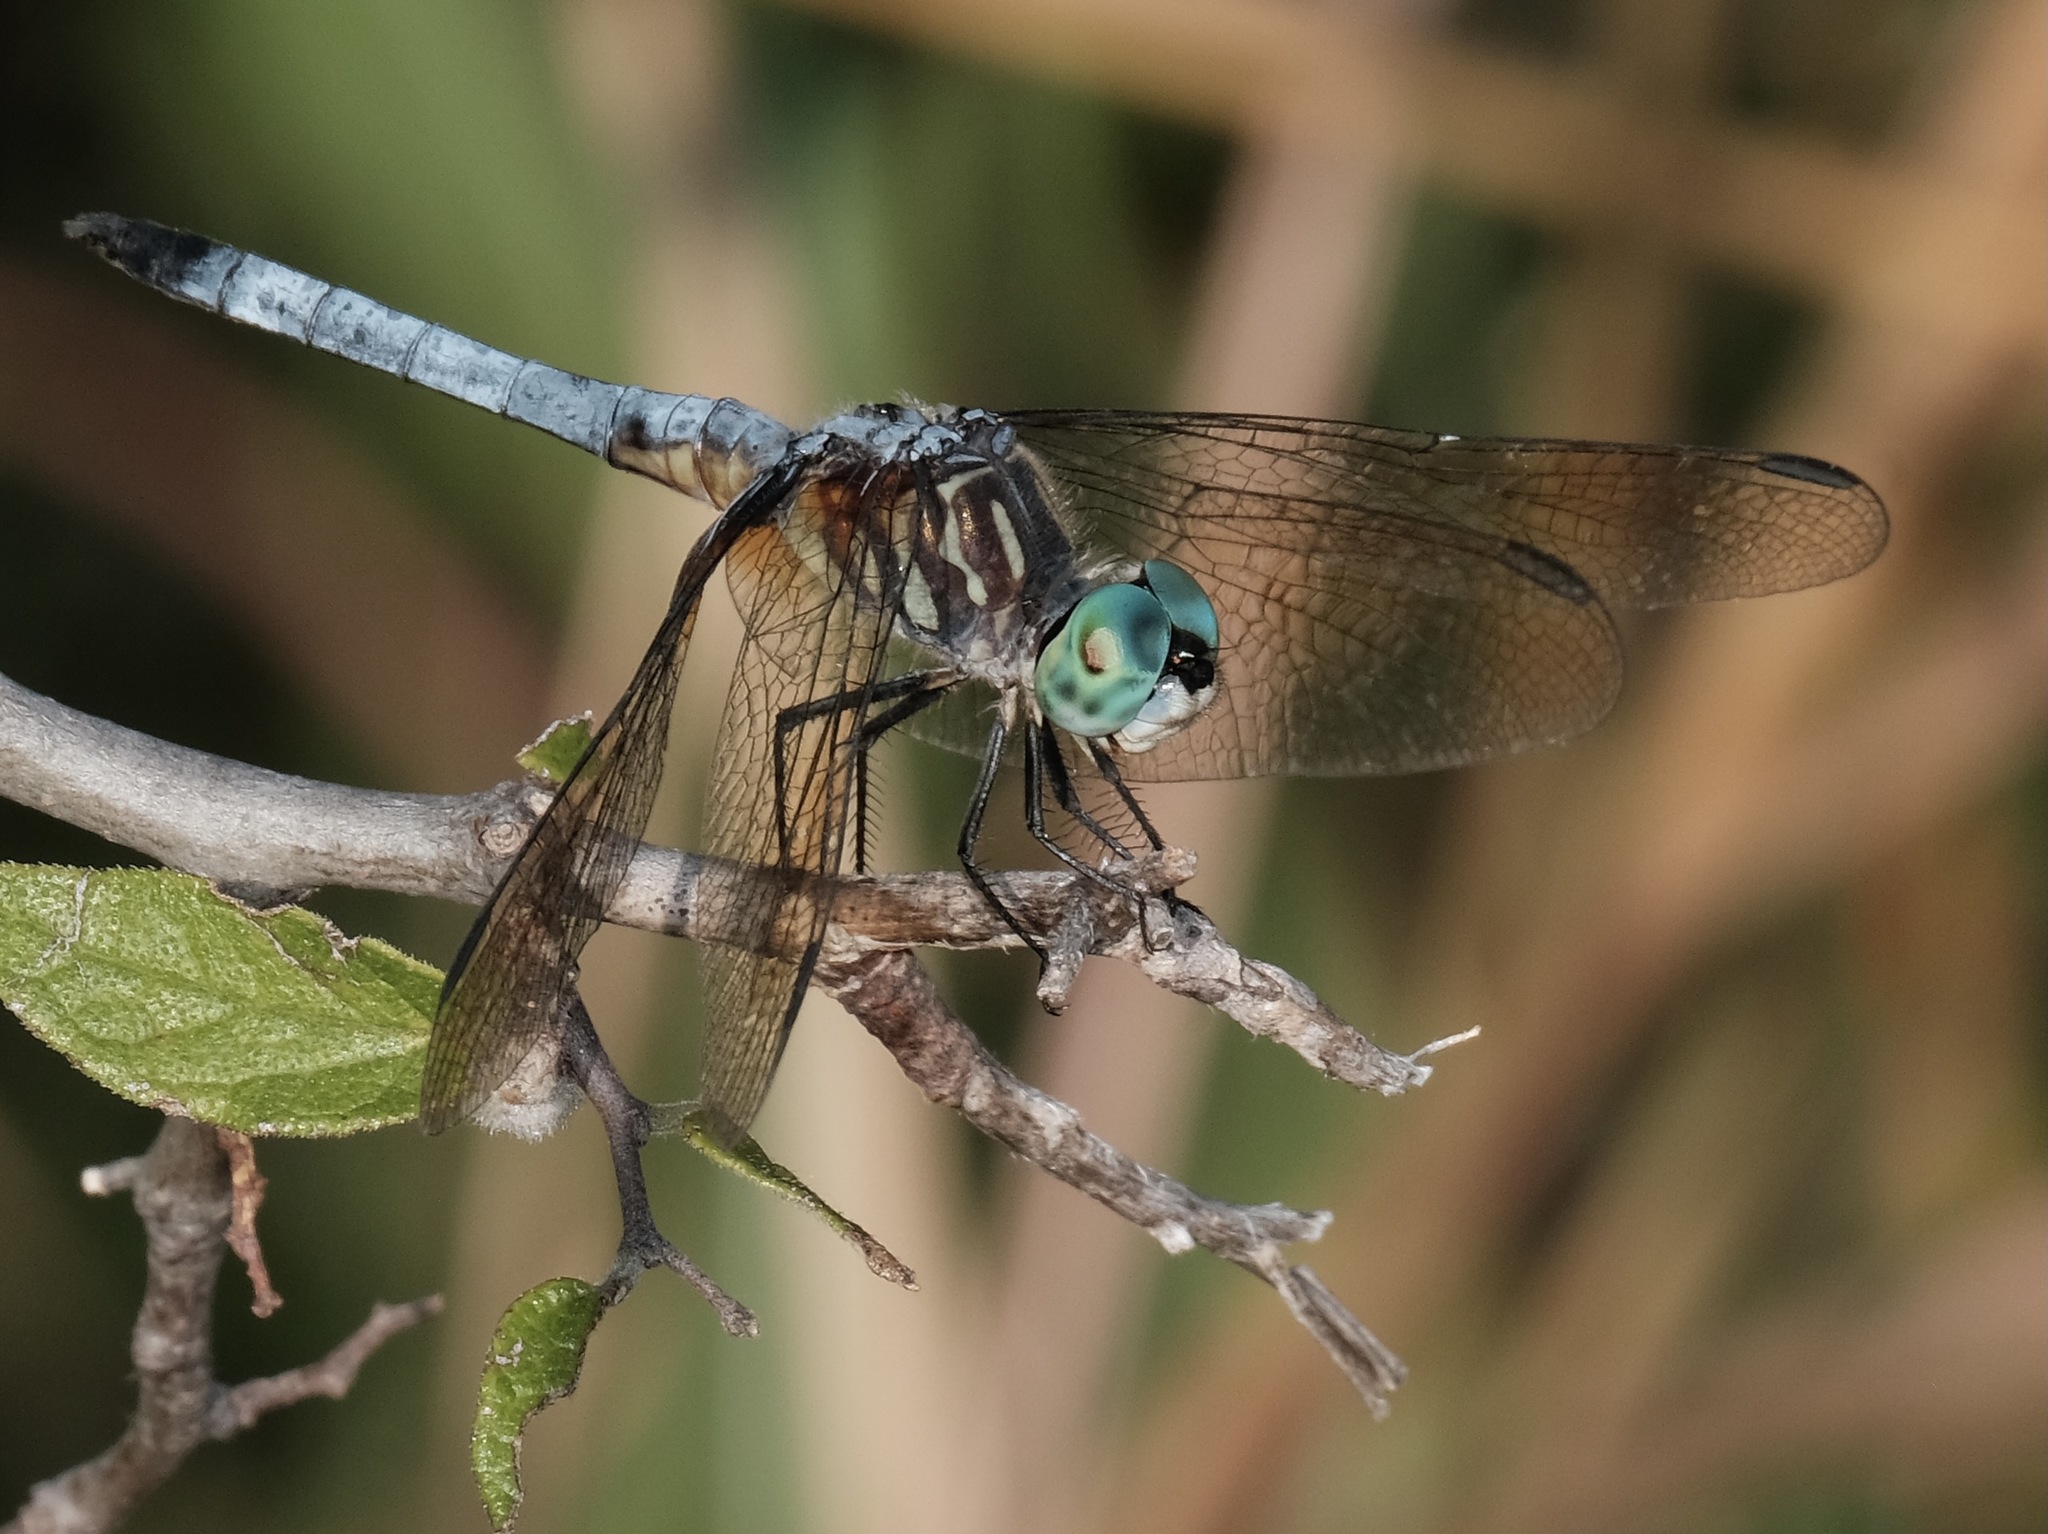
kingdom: Animalia
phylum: Arthropoda
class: Insecta
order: Odonata
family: Libellulidae
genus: Pachydiplax
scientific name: Pachydiplax longipennis
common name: Blue dasher
